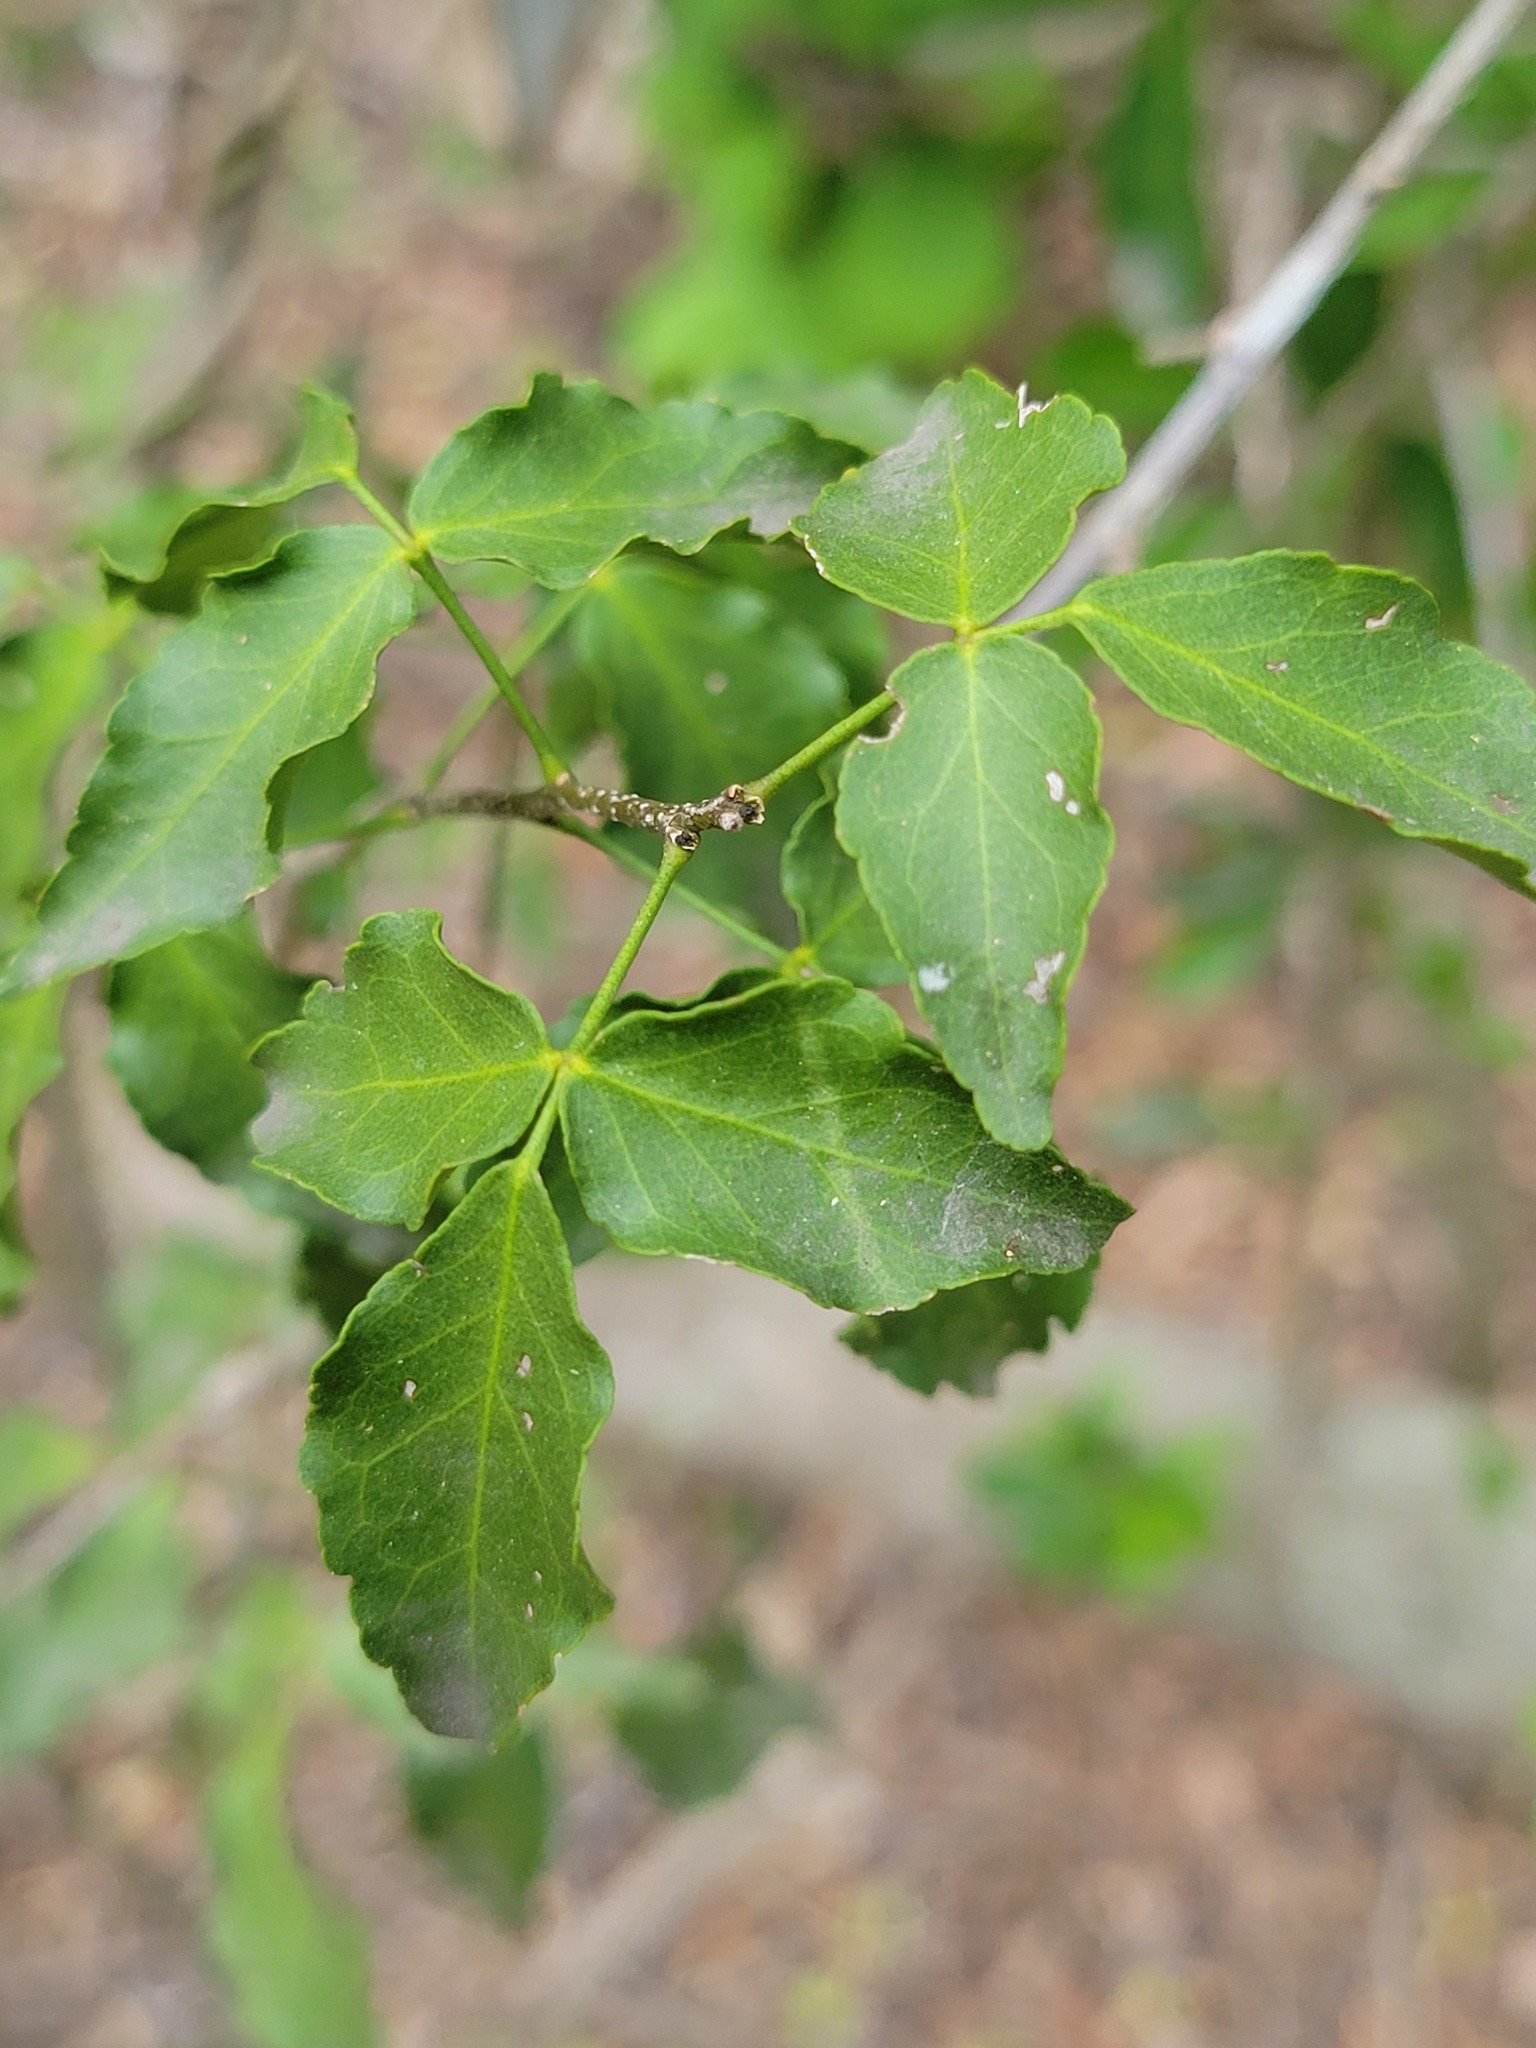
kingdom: Plantae
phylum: Tracheophyta
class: Magnoliopsida
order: Sapindales
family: Rutaceae
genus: Amyris
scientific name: Amyris texana
